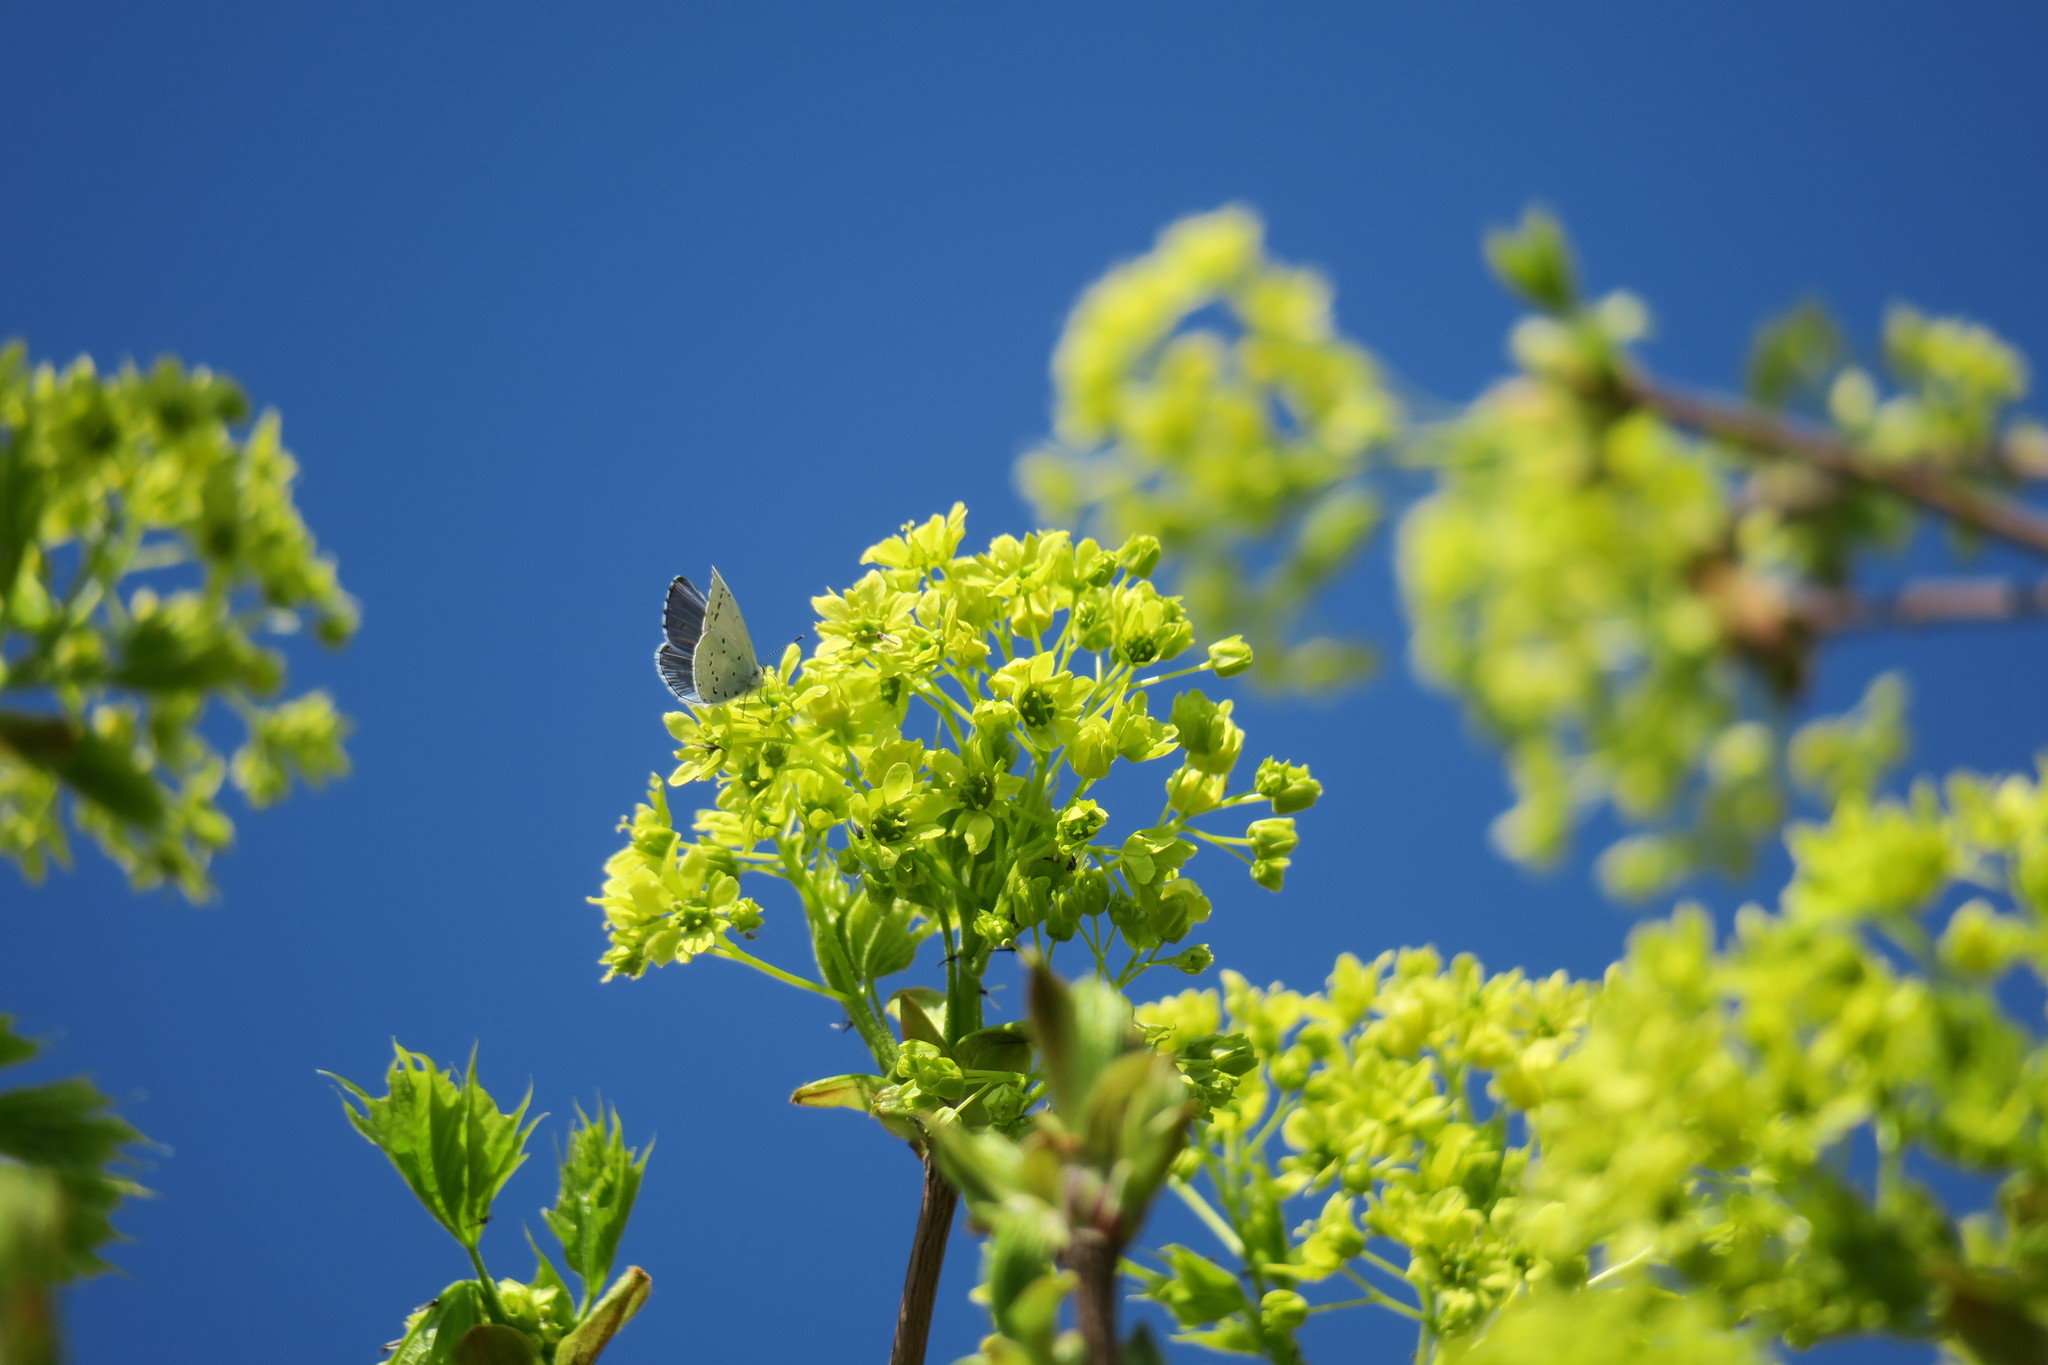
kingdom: Animalia
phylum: Arthropoda
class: Insecta
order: Lepidoptera
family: Lycaenidae
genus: Celastrina
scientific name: Celastrina argiolus
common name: Holly blue
